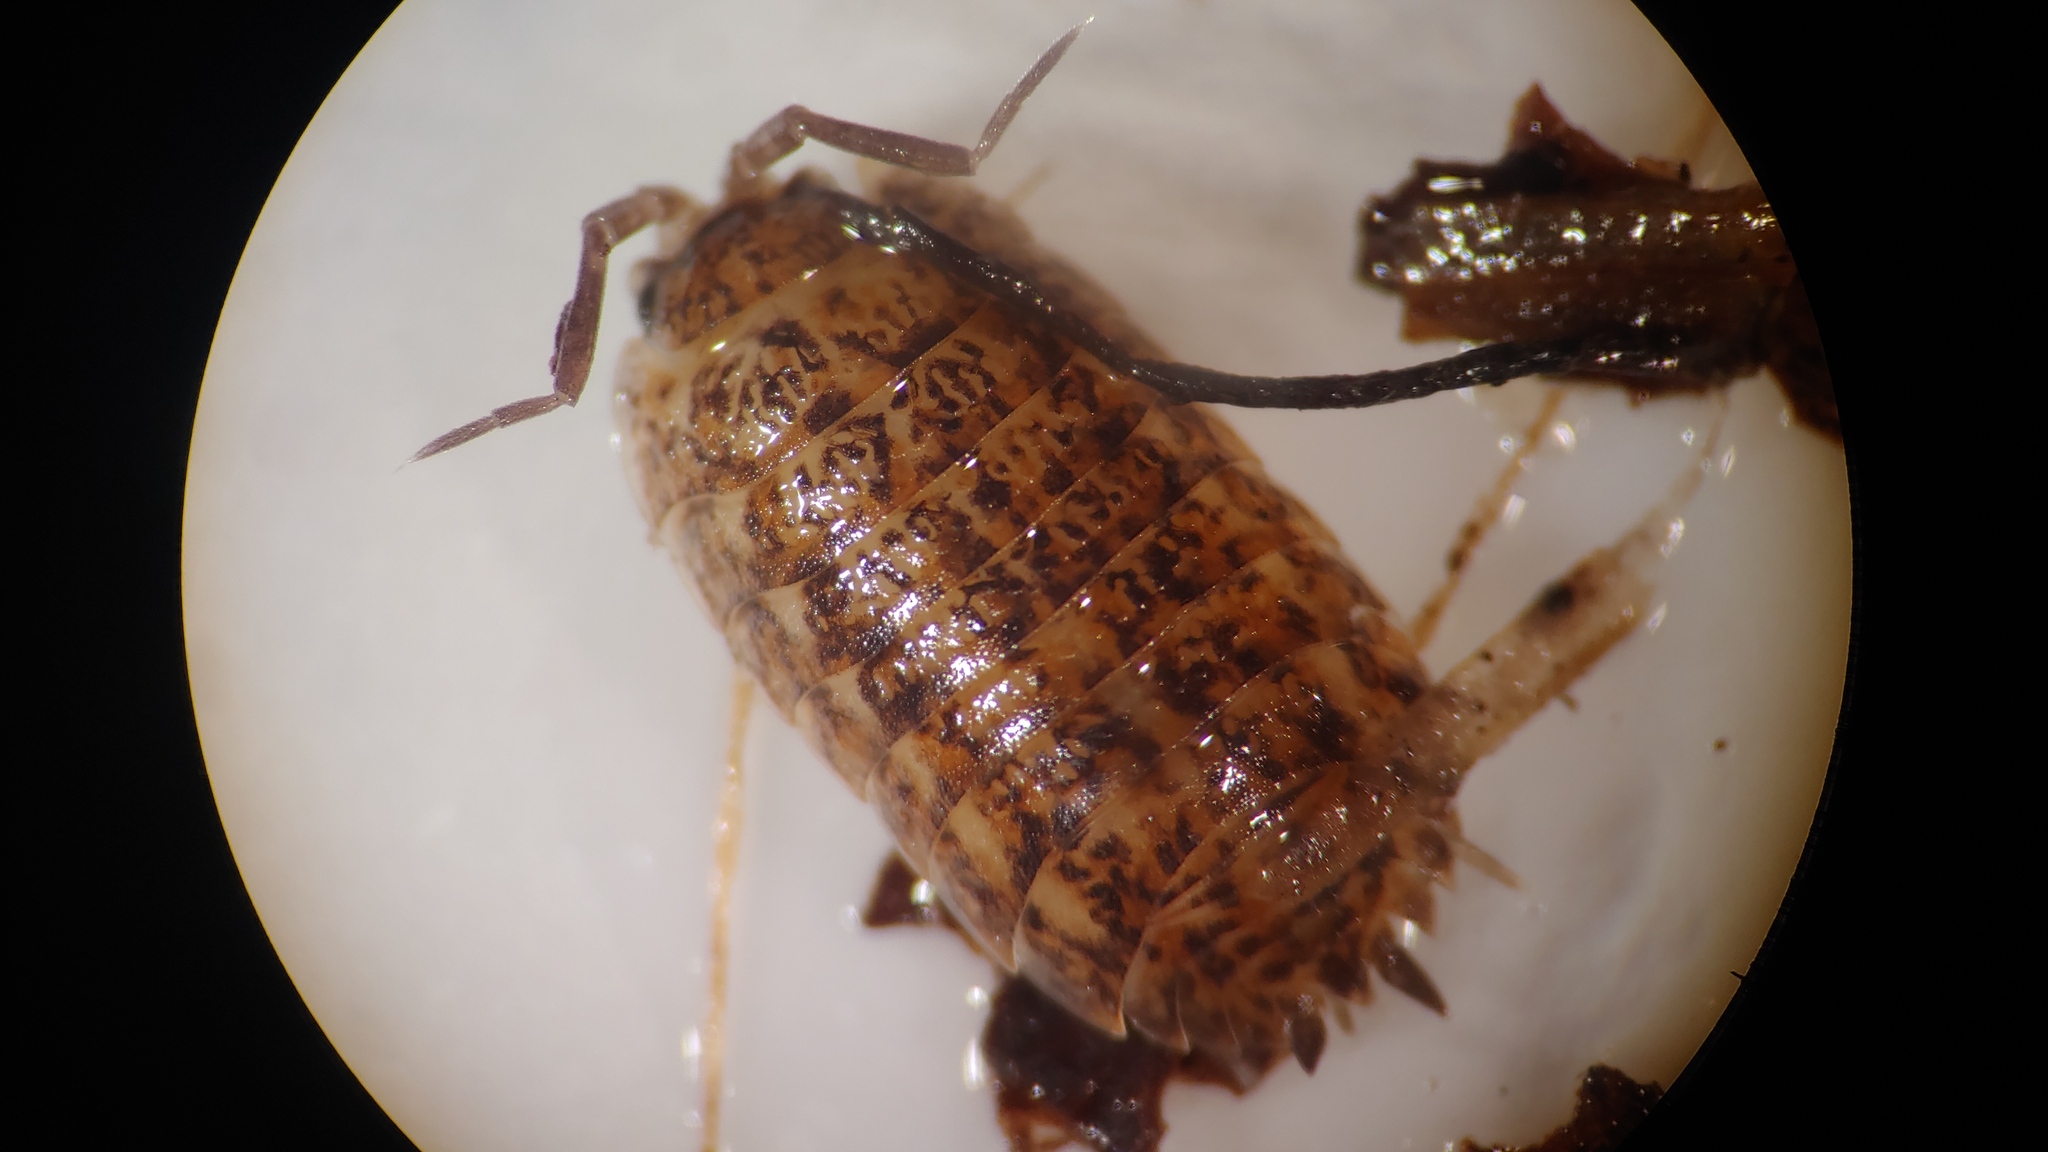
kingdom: Animalia
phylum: Arthropoda
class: Malacostraca
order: Isopoda
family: Trachelipodidae
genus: Trachelipus
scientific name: Trachelipus rathkii
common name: Isopod
